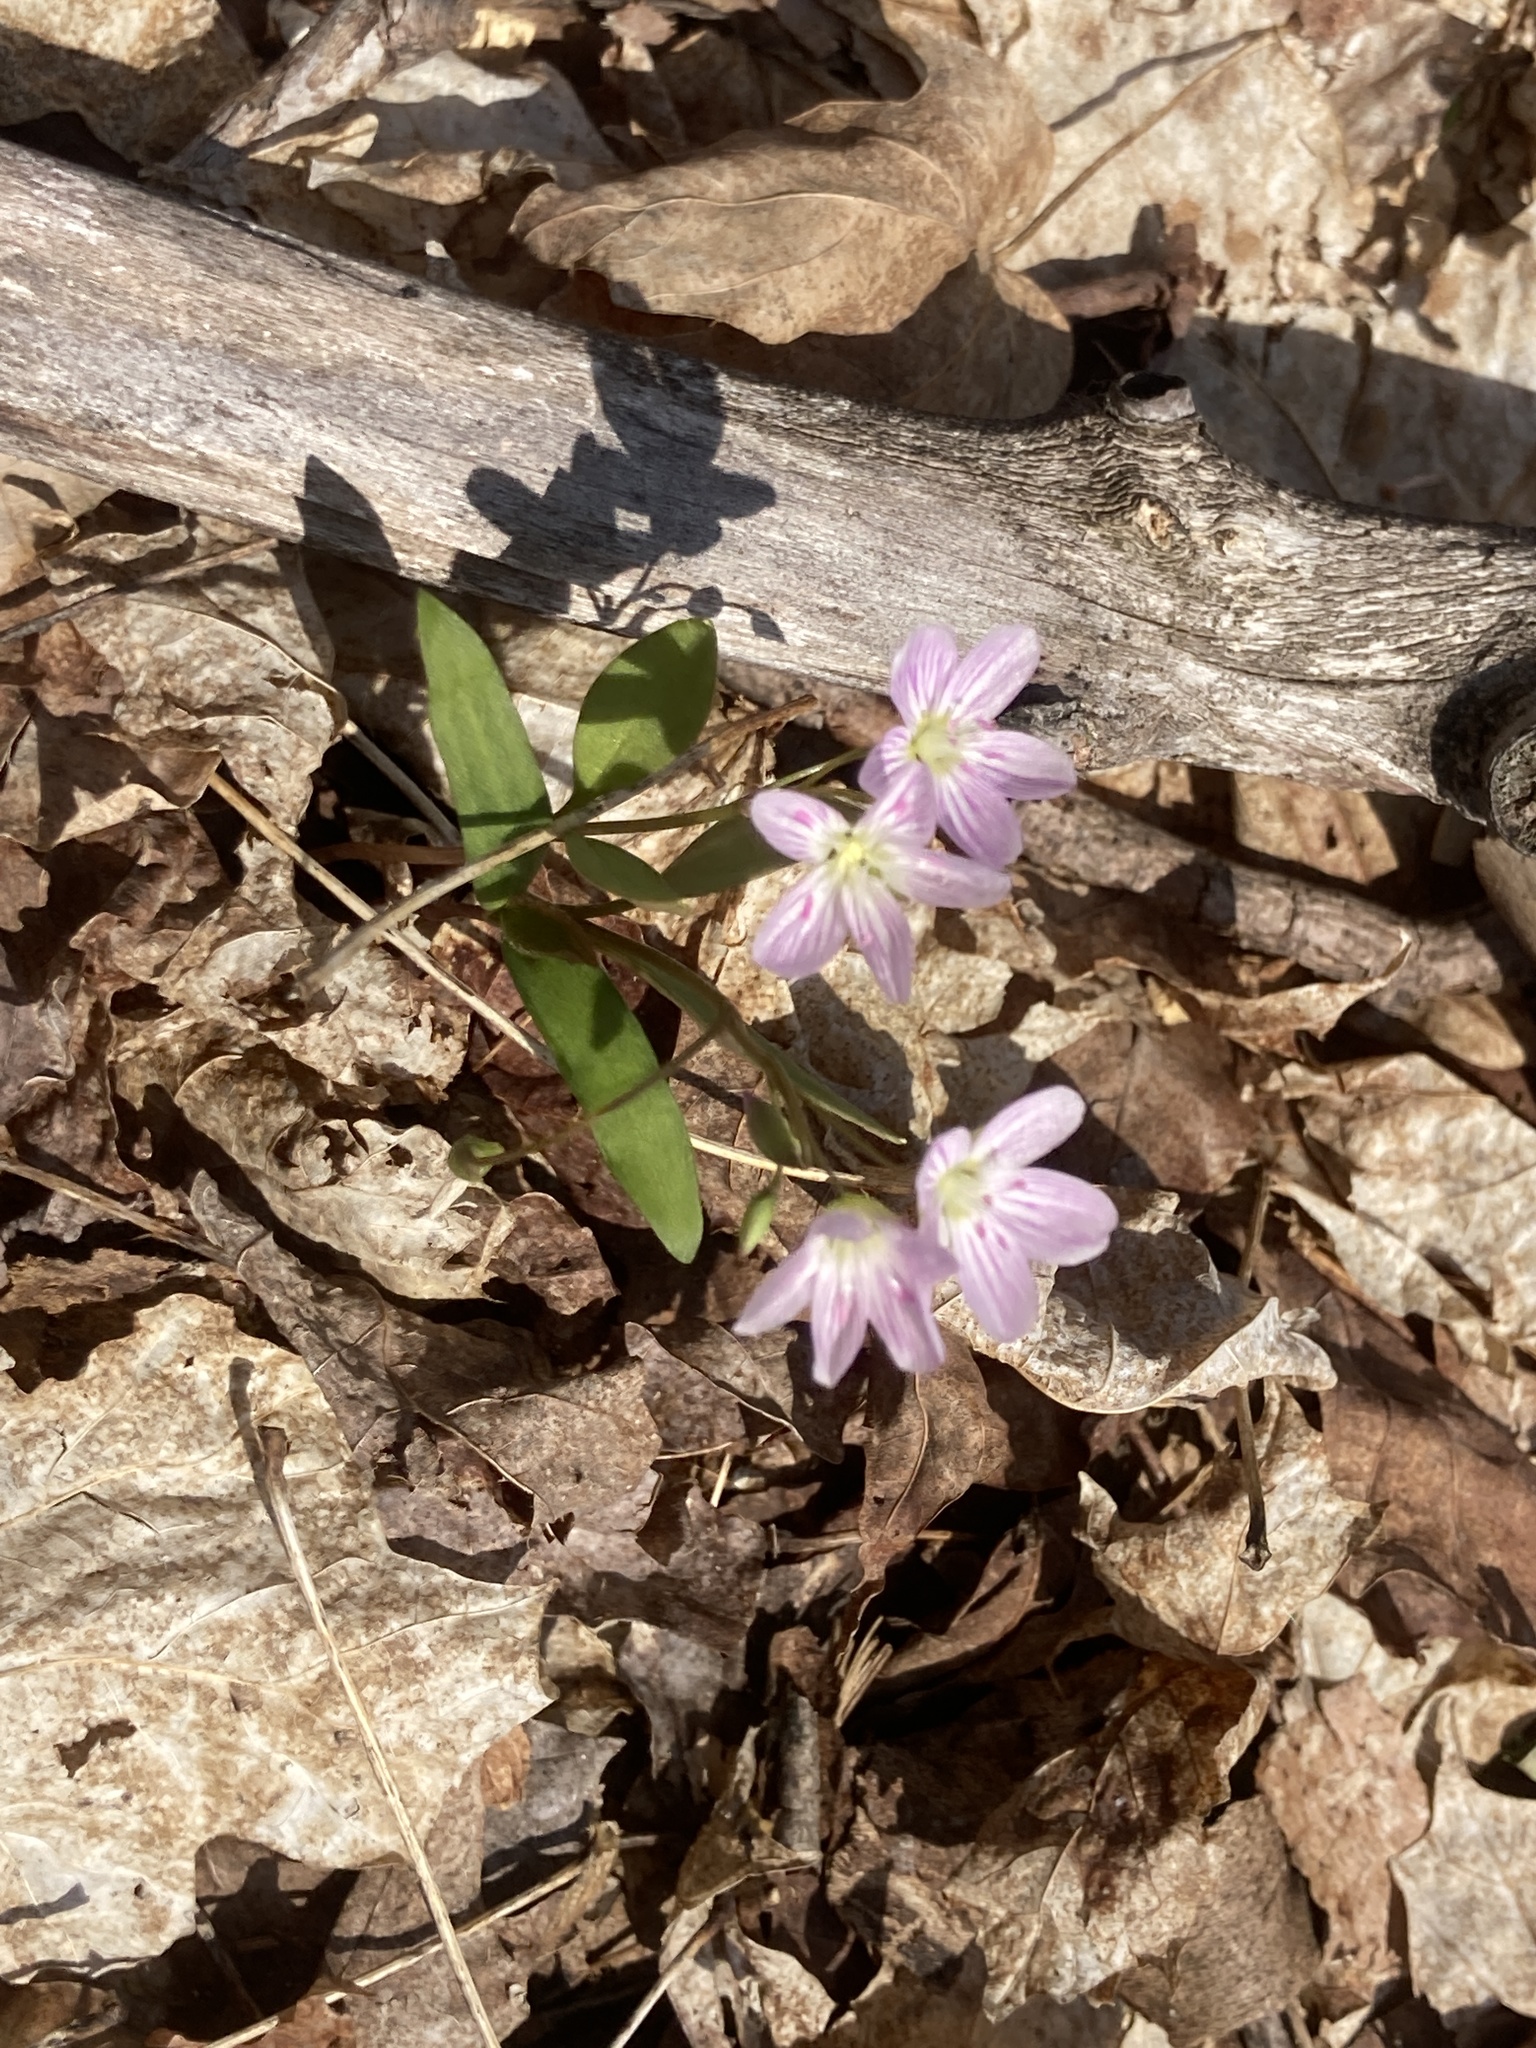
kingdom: Plantae
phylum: Tracheophyta
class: Magnoliopsida
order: Caryophyllales
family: Montiaceae
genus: Claytonia
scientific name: Claytonia caroliniana
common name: Carolina spring beauty
